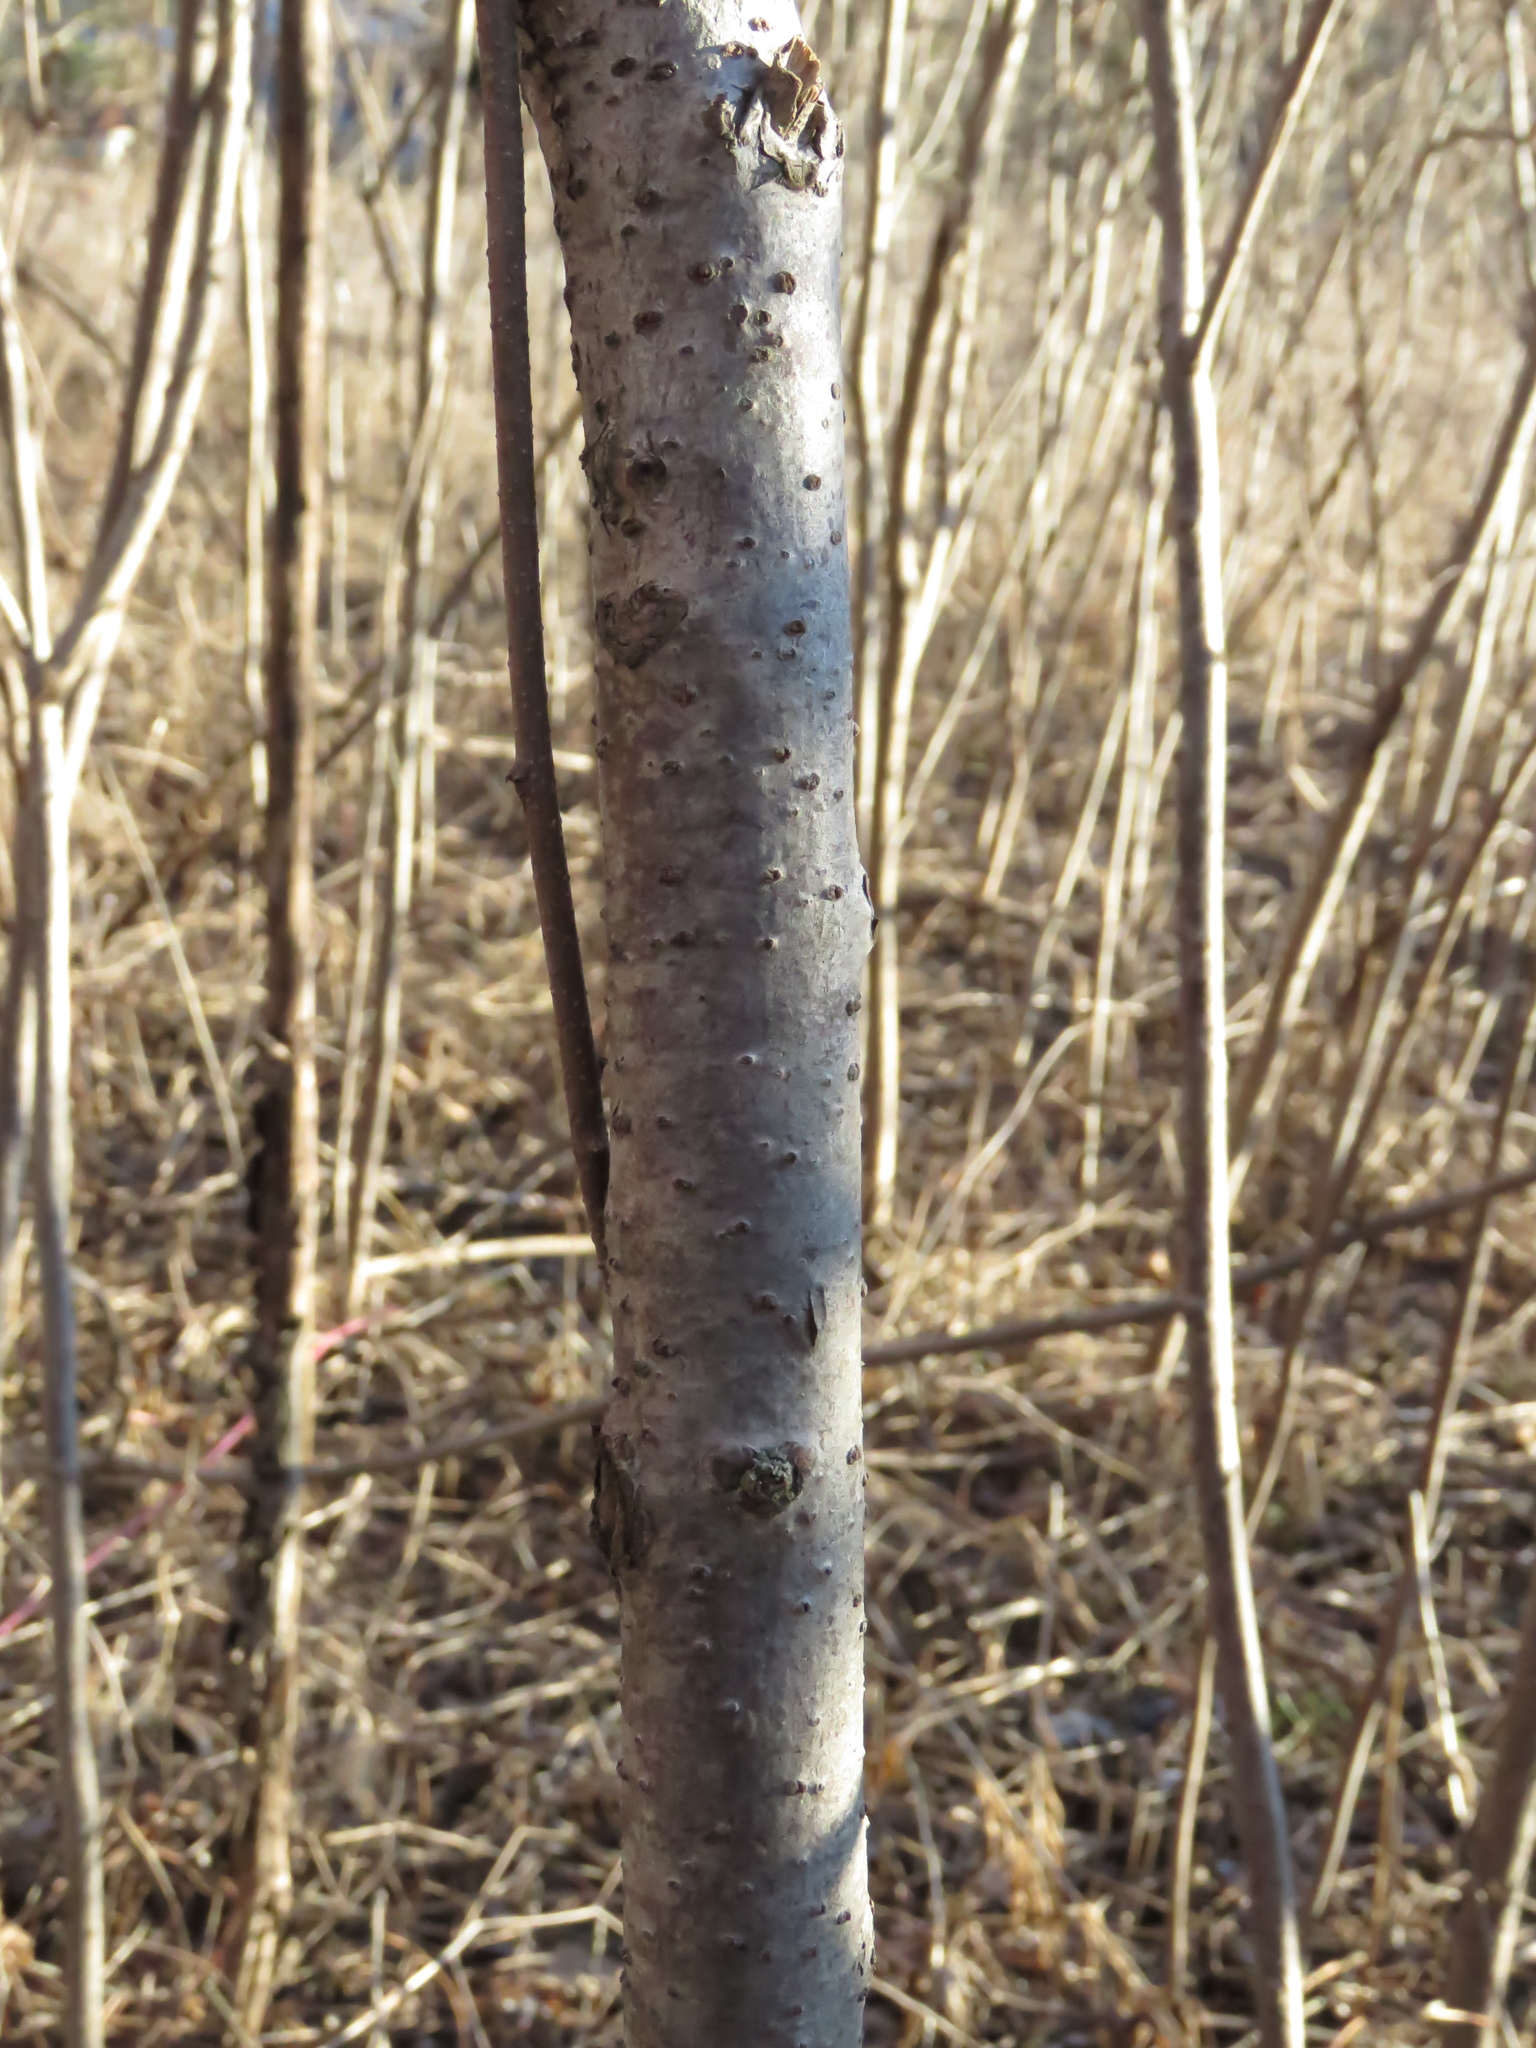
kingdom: Plantae
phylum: Tracheophyta
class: Magnoliopsida
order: Sapindales
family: Anacardiaceae
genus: Rhus
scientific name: Rhus glabra
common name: Scarlet sumac
